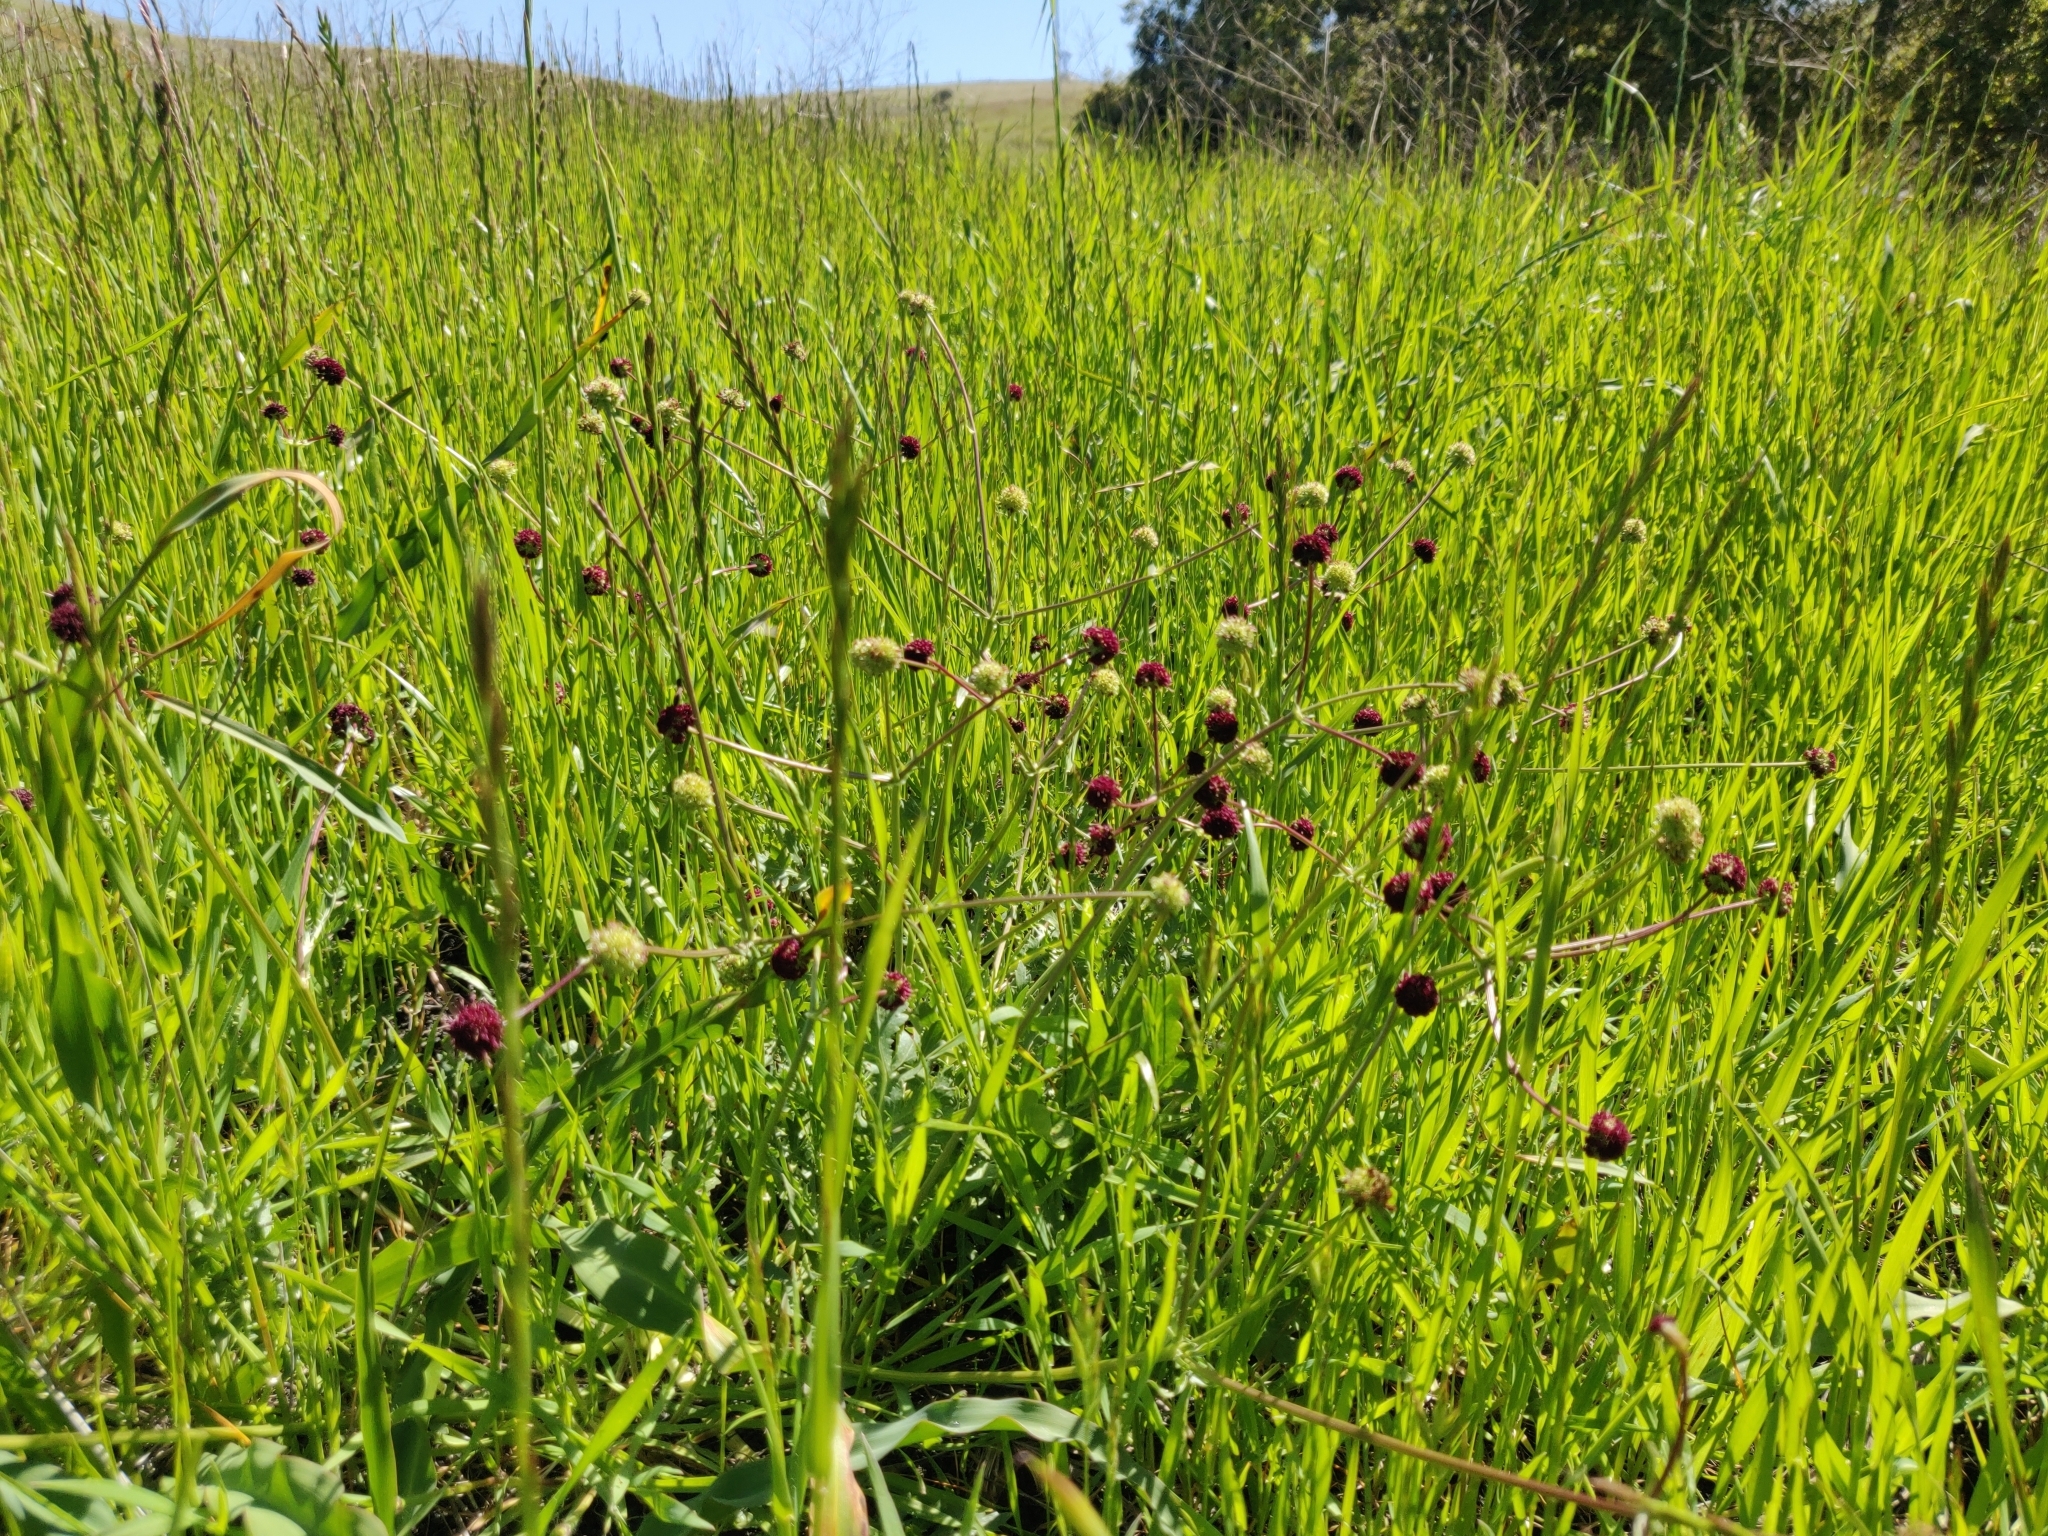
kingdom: Plantae
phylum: Tracheophyta
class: Magnoliopsida
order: Apiales
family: Apiaceae
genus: Sanicula
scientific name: Sanicula bipinnatifida
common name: Shoe-buttons
